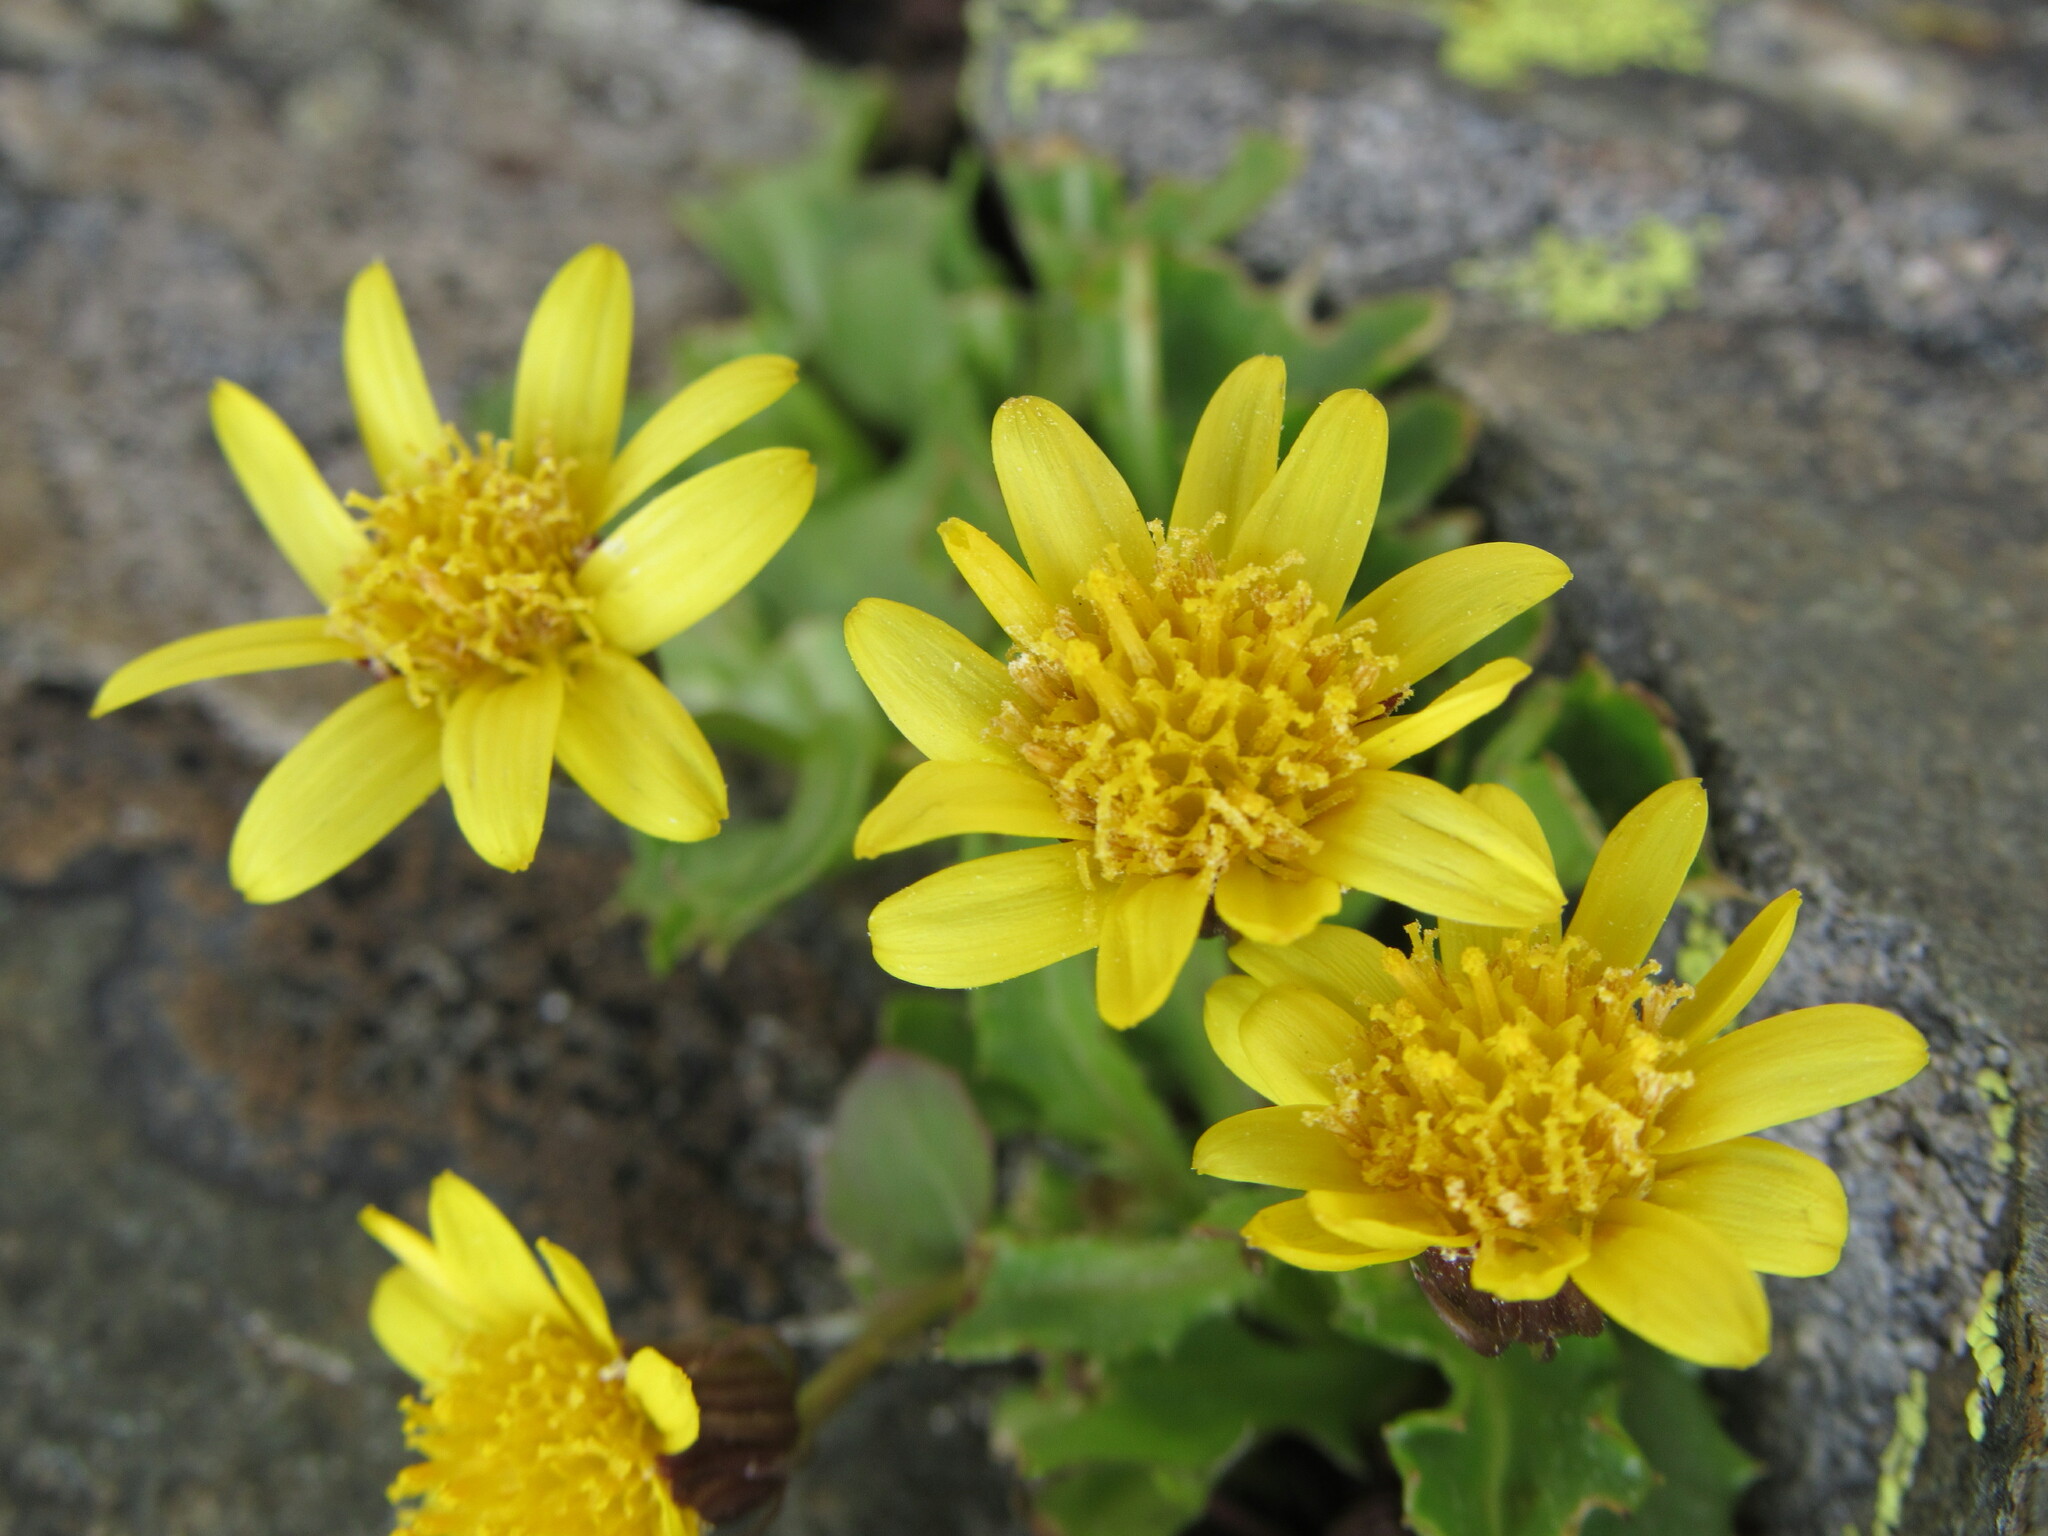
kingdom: Plantae
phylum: Tracheophyta
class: Magnoliopsida
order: Asterales
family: Asteraceae
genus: Senecio
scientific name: Senecio fremontii
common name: Fremont's groundsel
